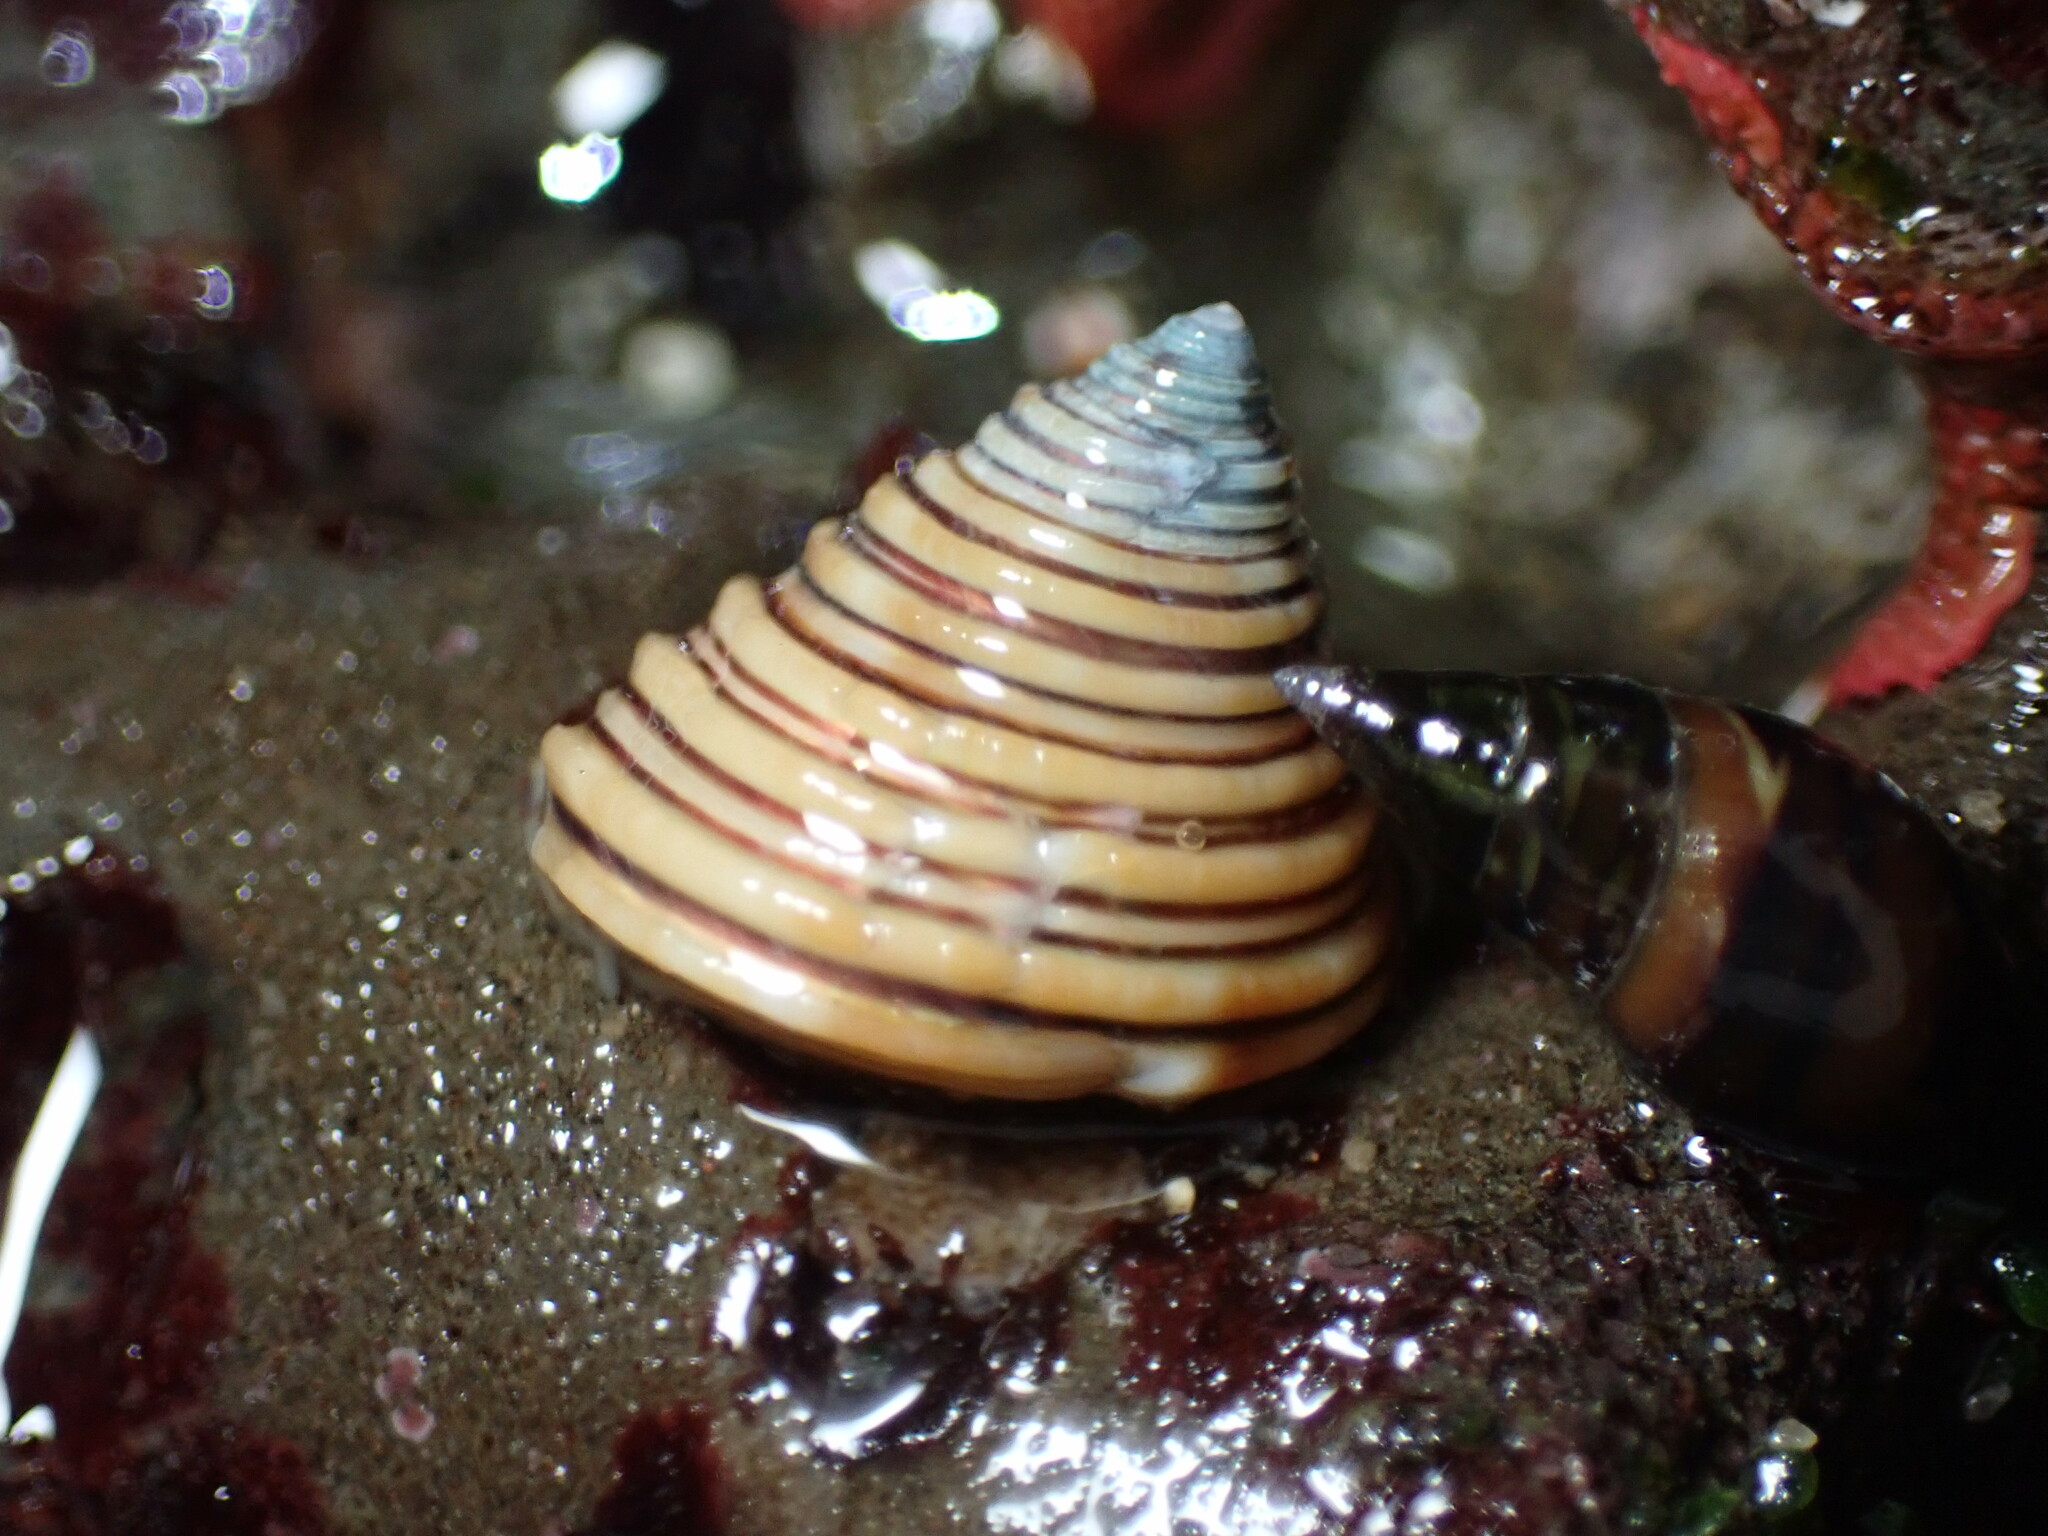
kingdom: Animalia
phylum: Mollusca
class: Gastropoda
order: Trochida
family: Calliostomatidae
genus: Calliostoma
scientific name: Calliostoma canaliculatum
